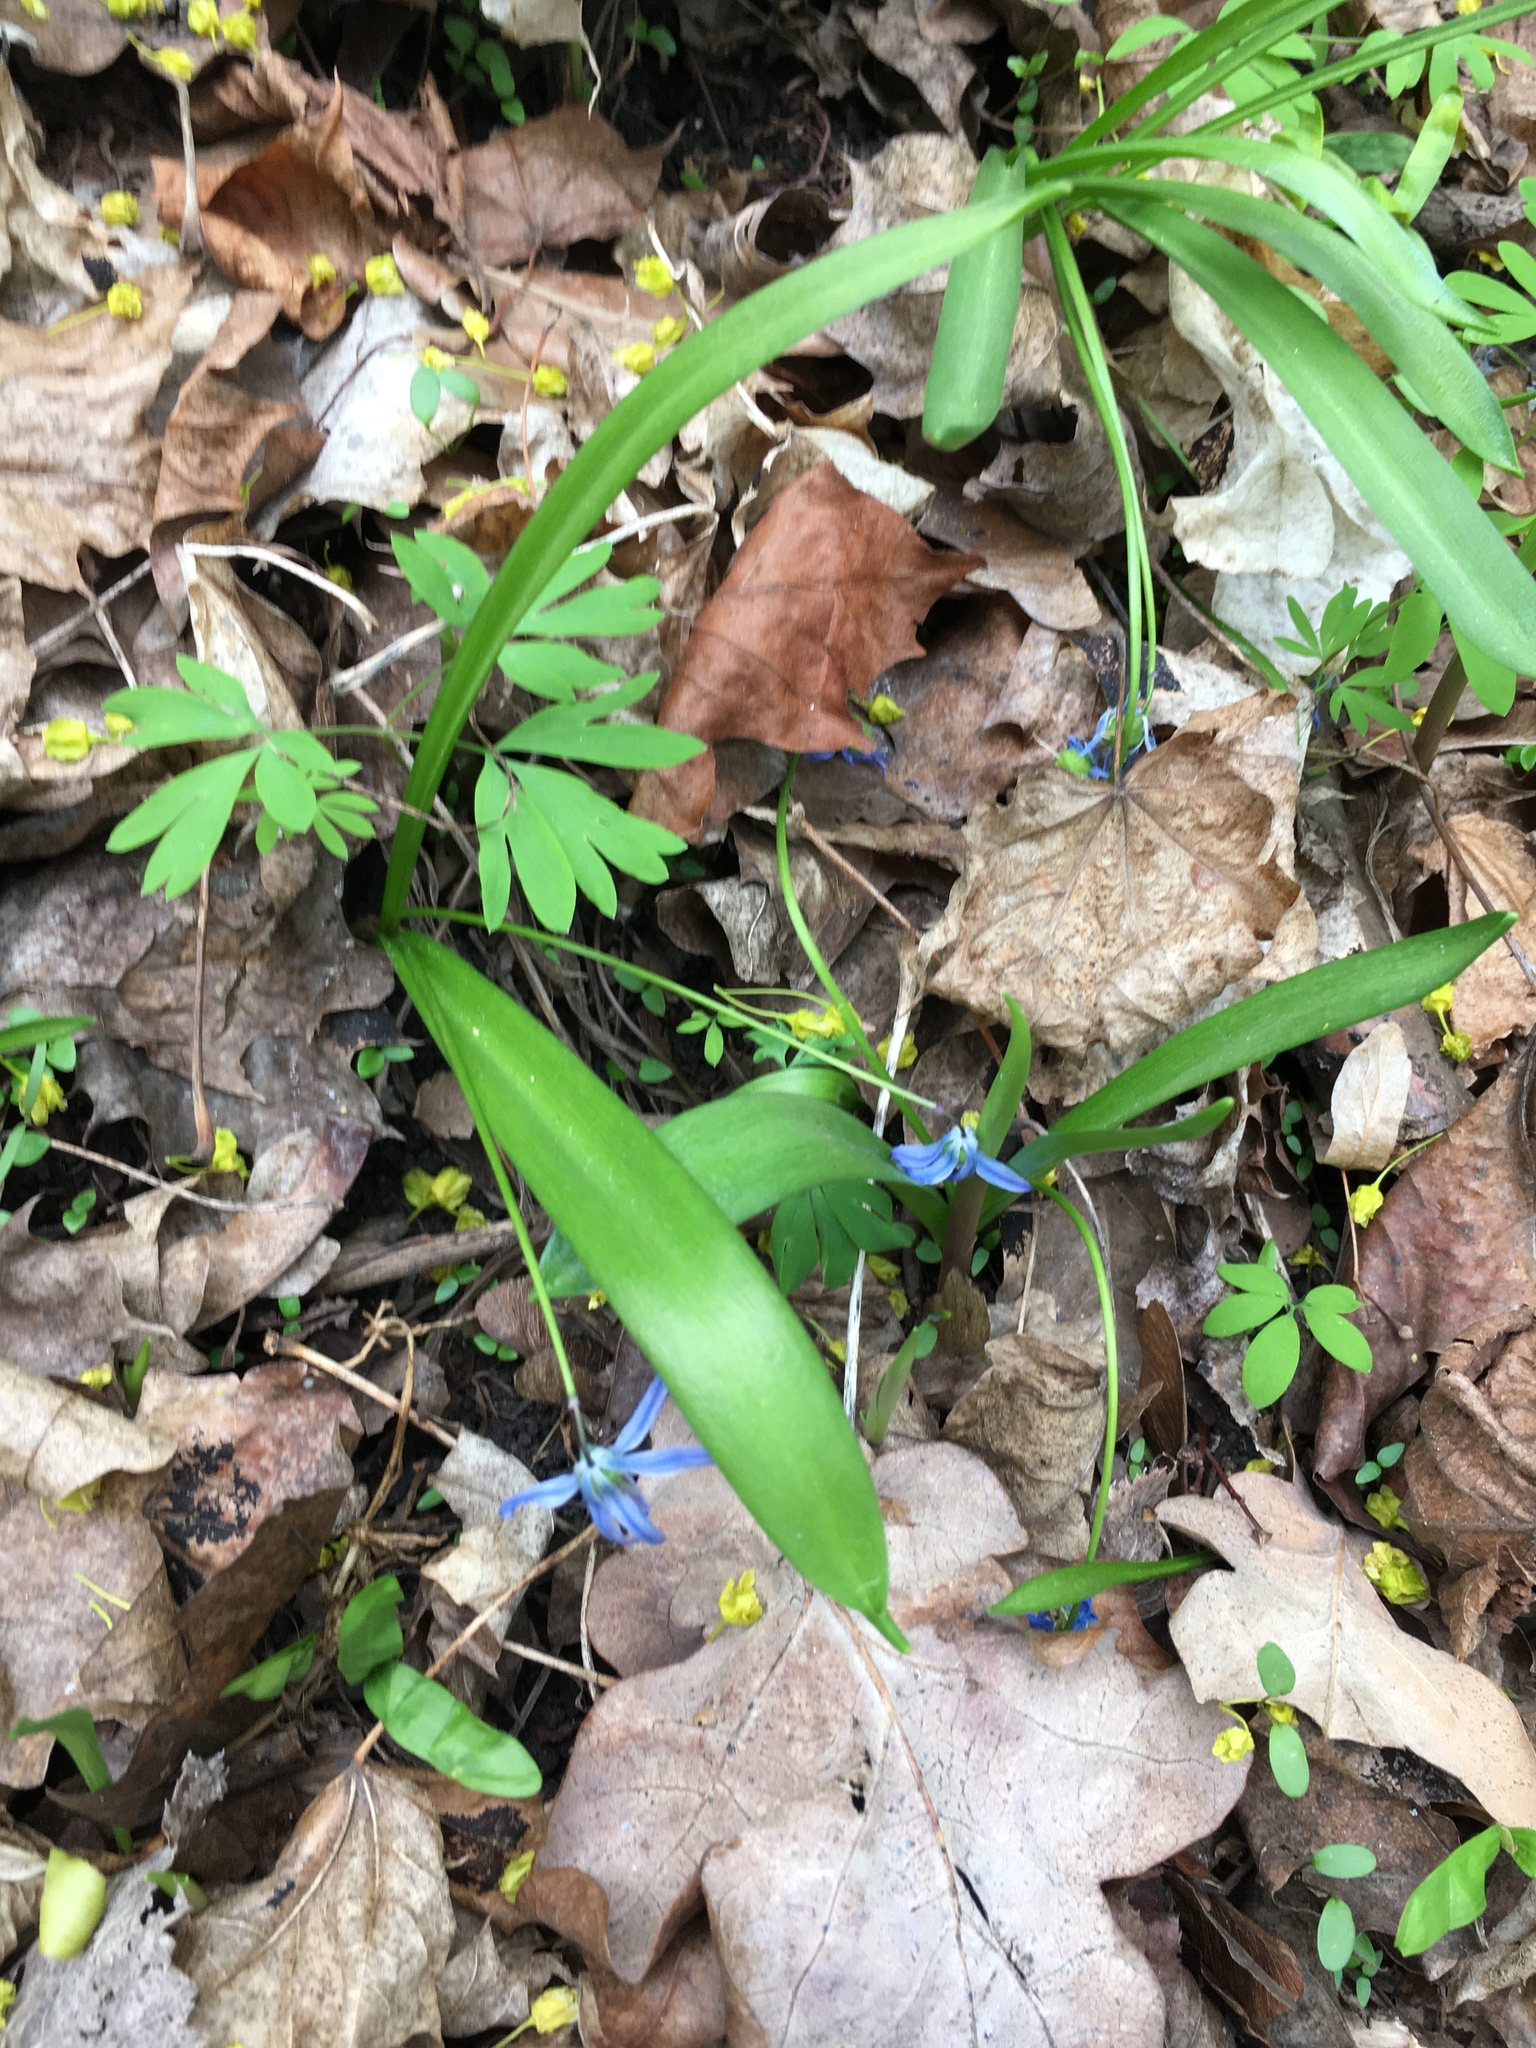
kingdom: Plantae
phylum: Tracheophyta
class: Liliopsida
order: Asparagales
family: Asparagaceae
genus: Scilla
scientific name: Scilla siberica
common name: Siberian squill
